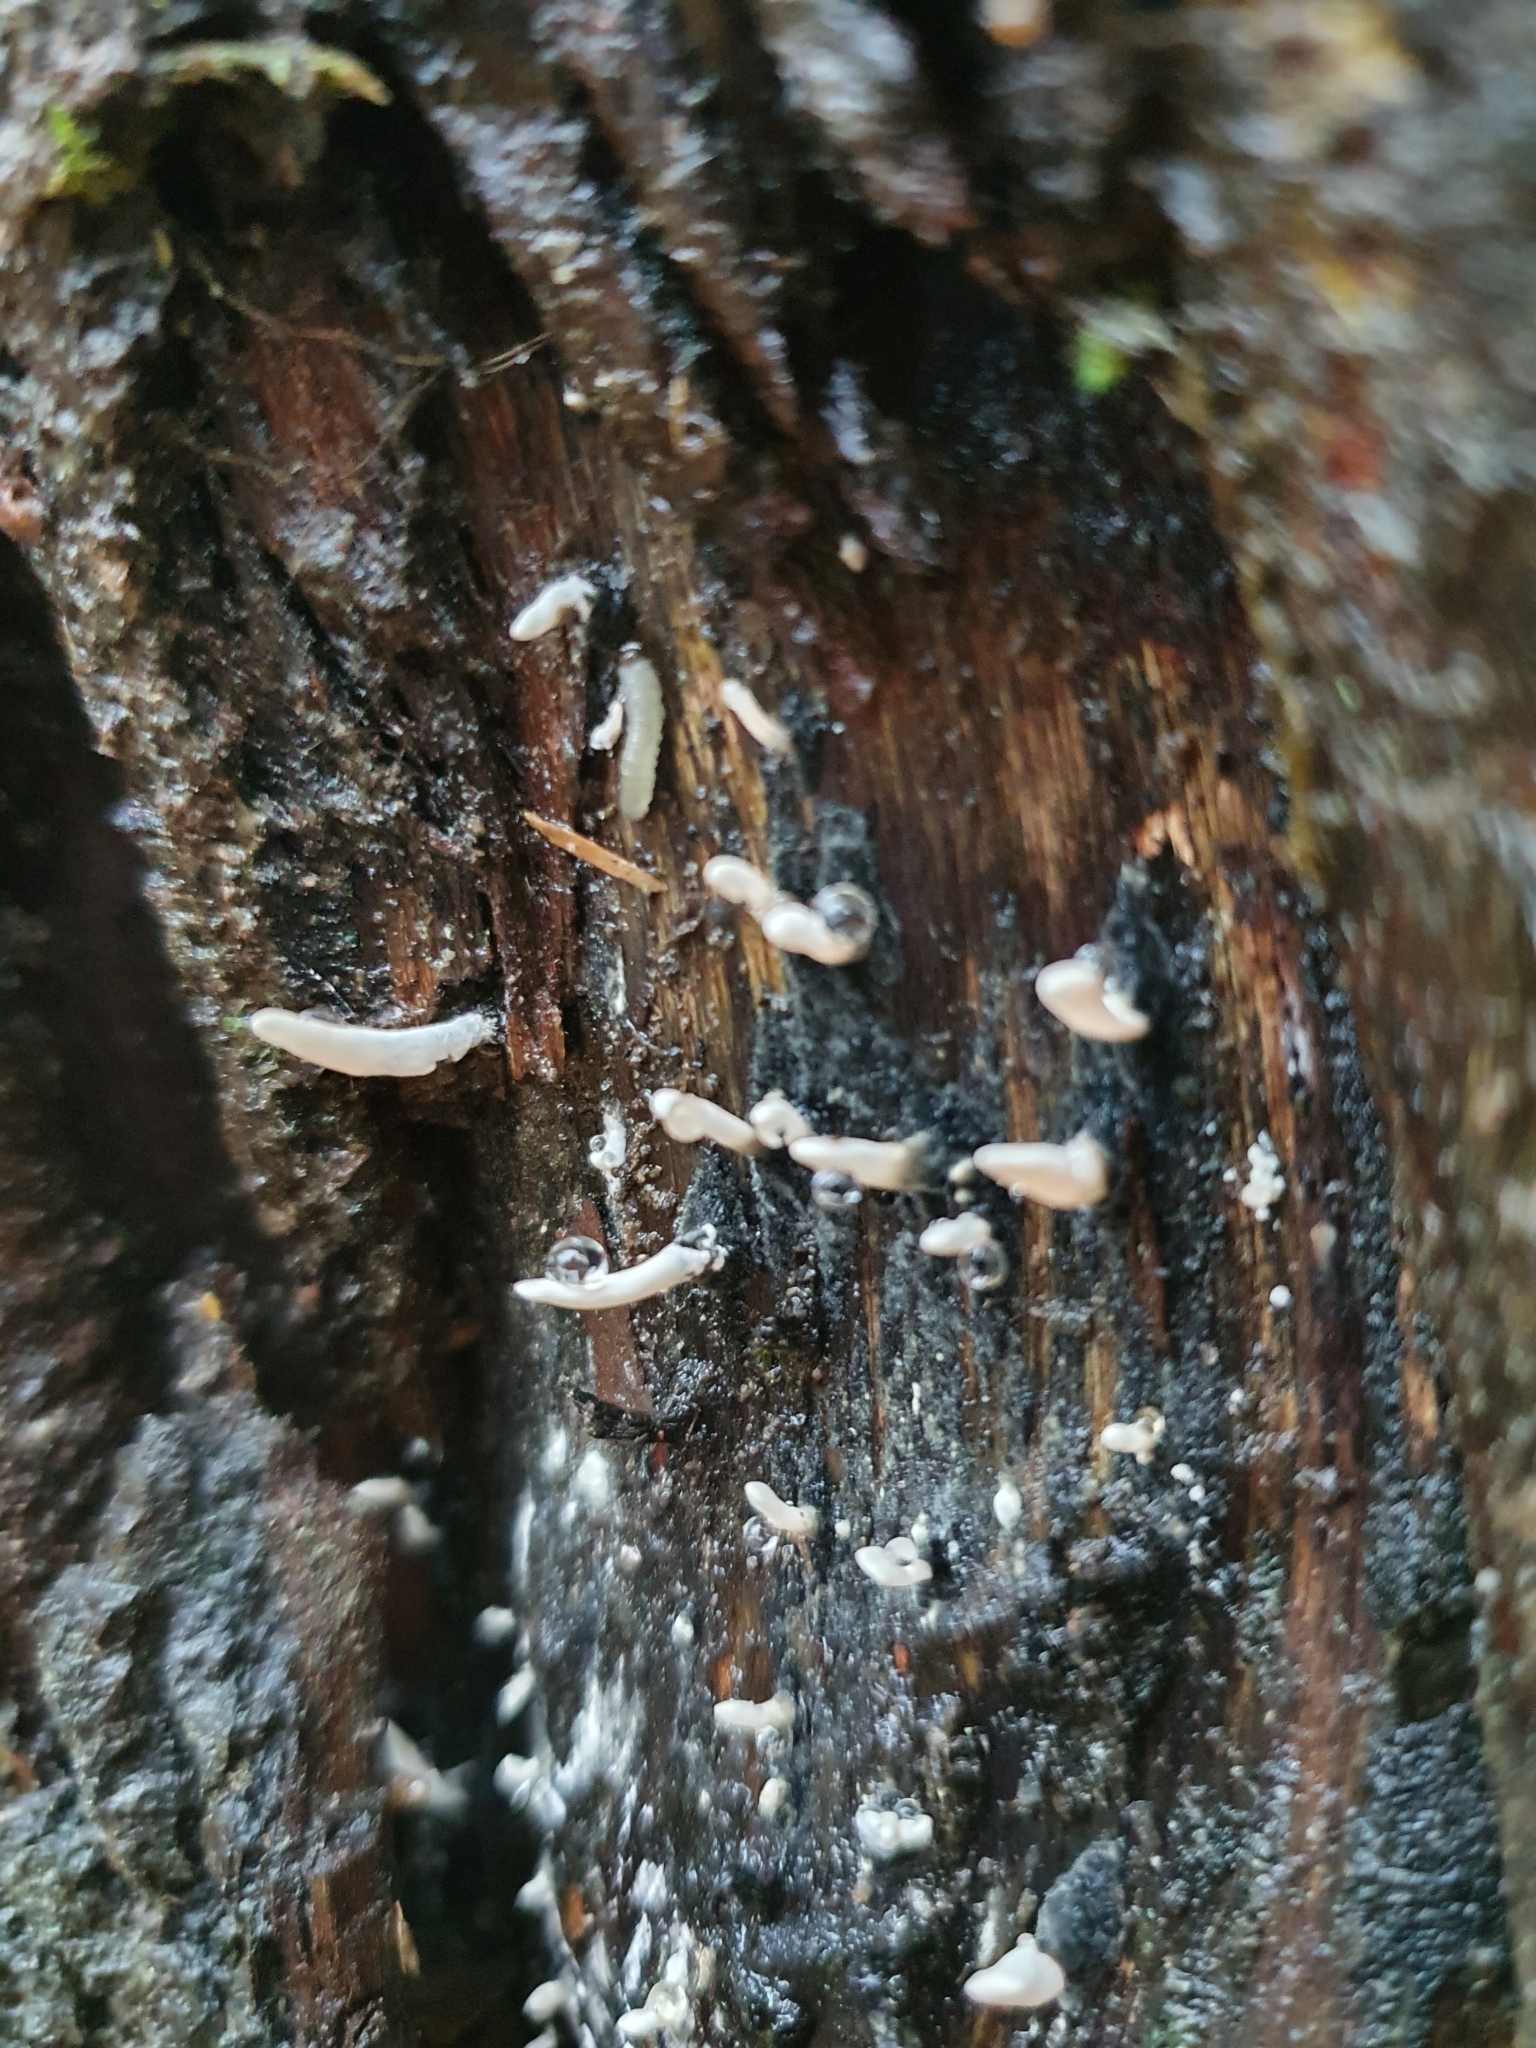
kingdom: Fungi
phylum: Ascomycota
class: Sordariomycetes
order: Xylariales
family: Xylariaceae
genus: Xylaria
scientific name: Xylaria hypoxylon
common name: Candle-snuff fungus
